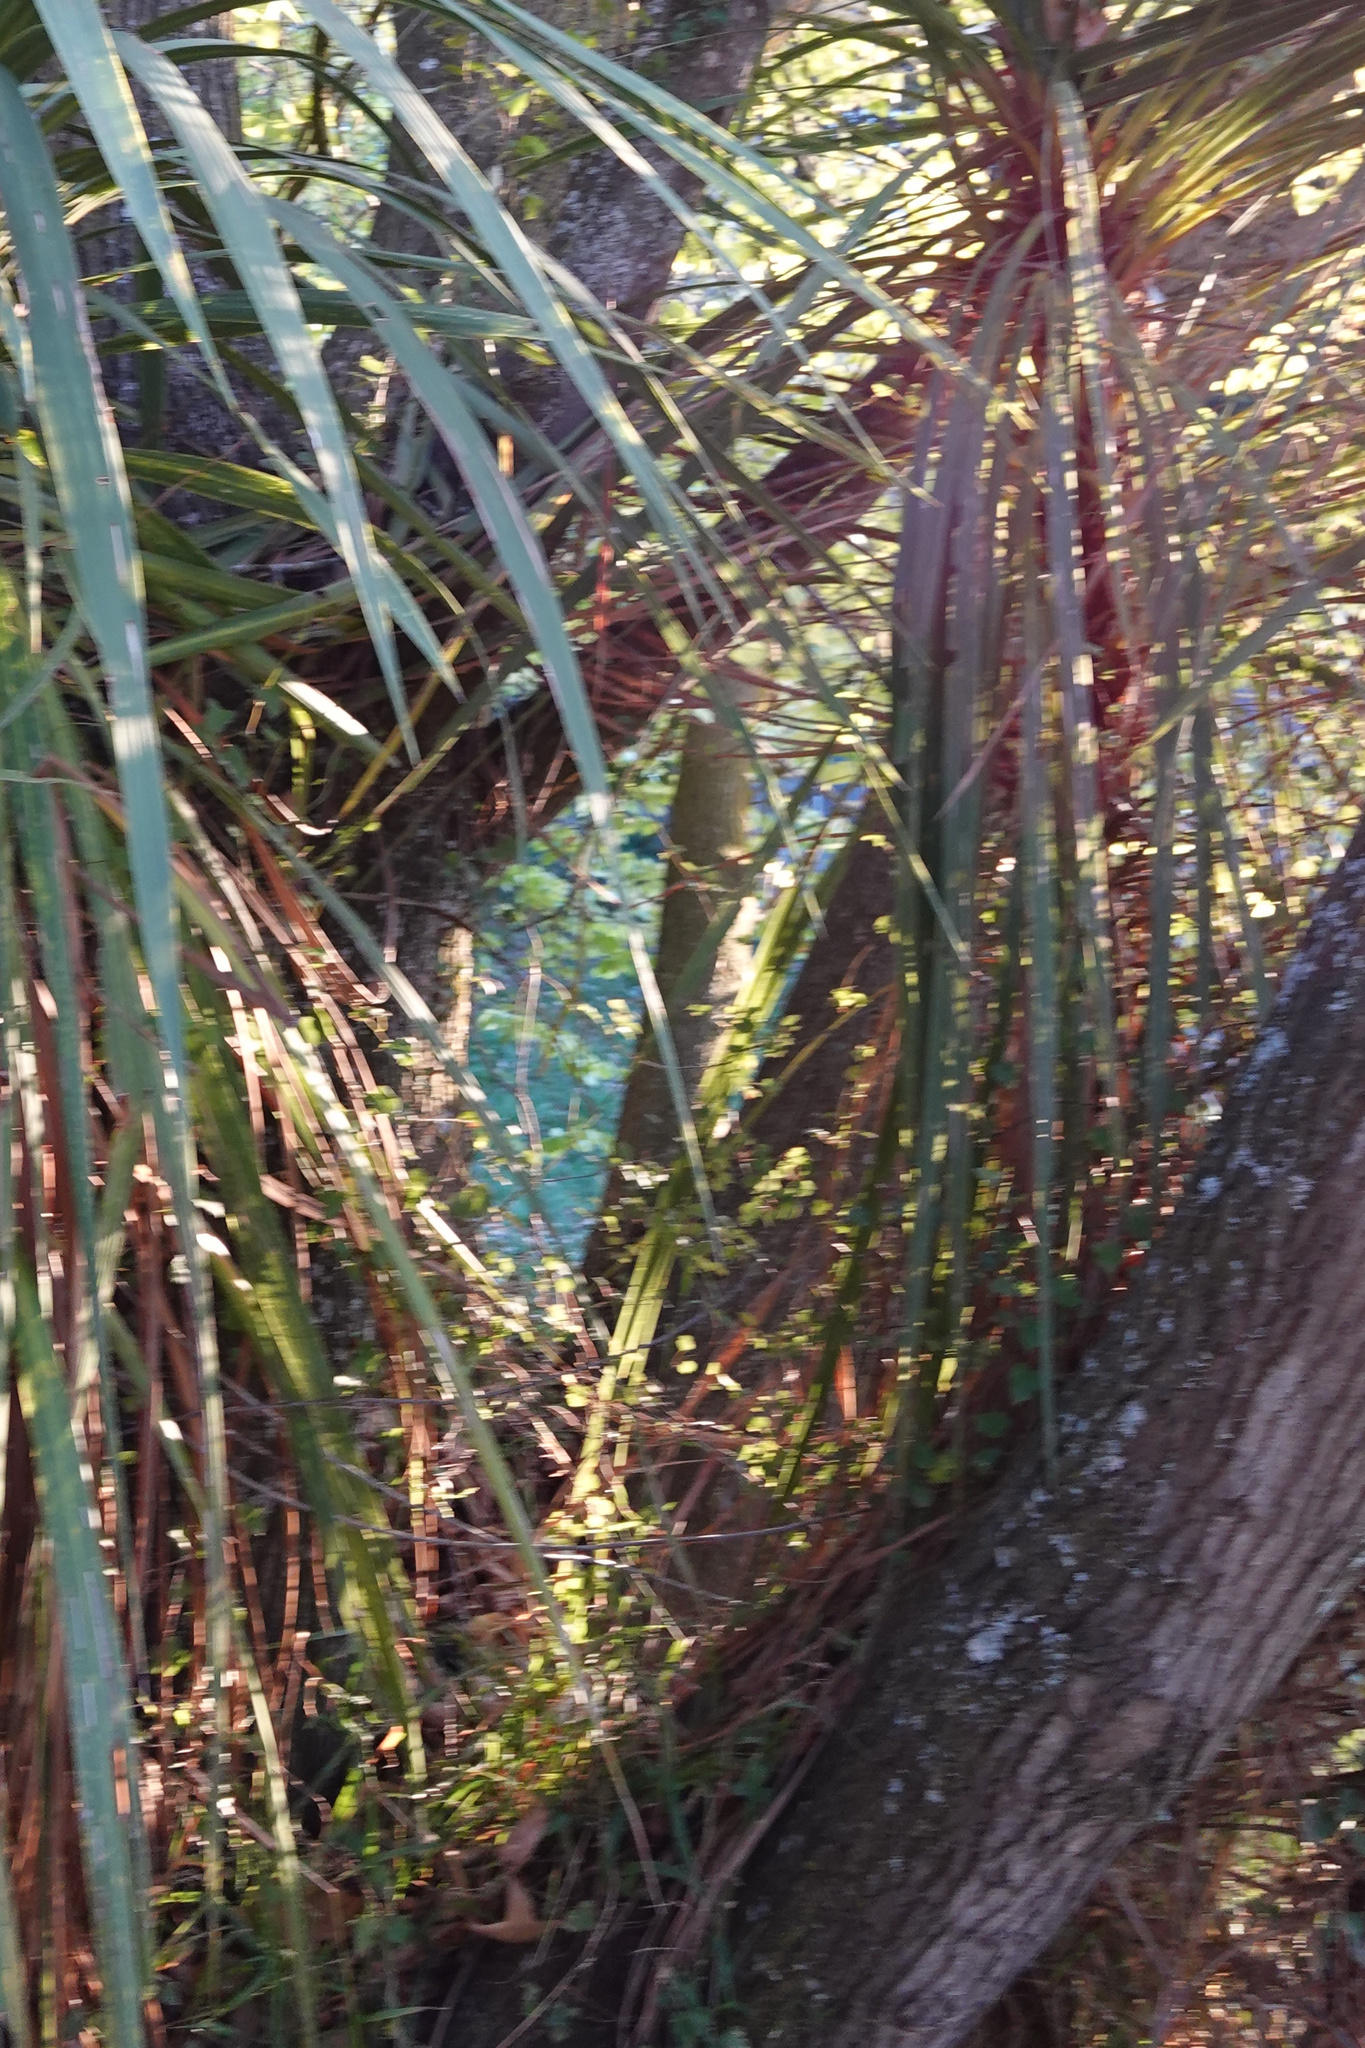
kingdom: Plantae
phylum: Tracheophyta
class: Magnoliopsida
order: Caryophyllales
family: Polygonaceae
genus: Muehlenbeckia
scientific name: Muehlenbeckia australis
